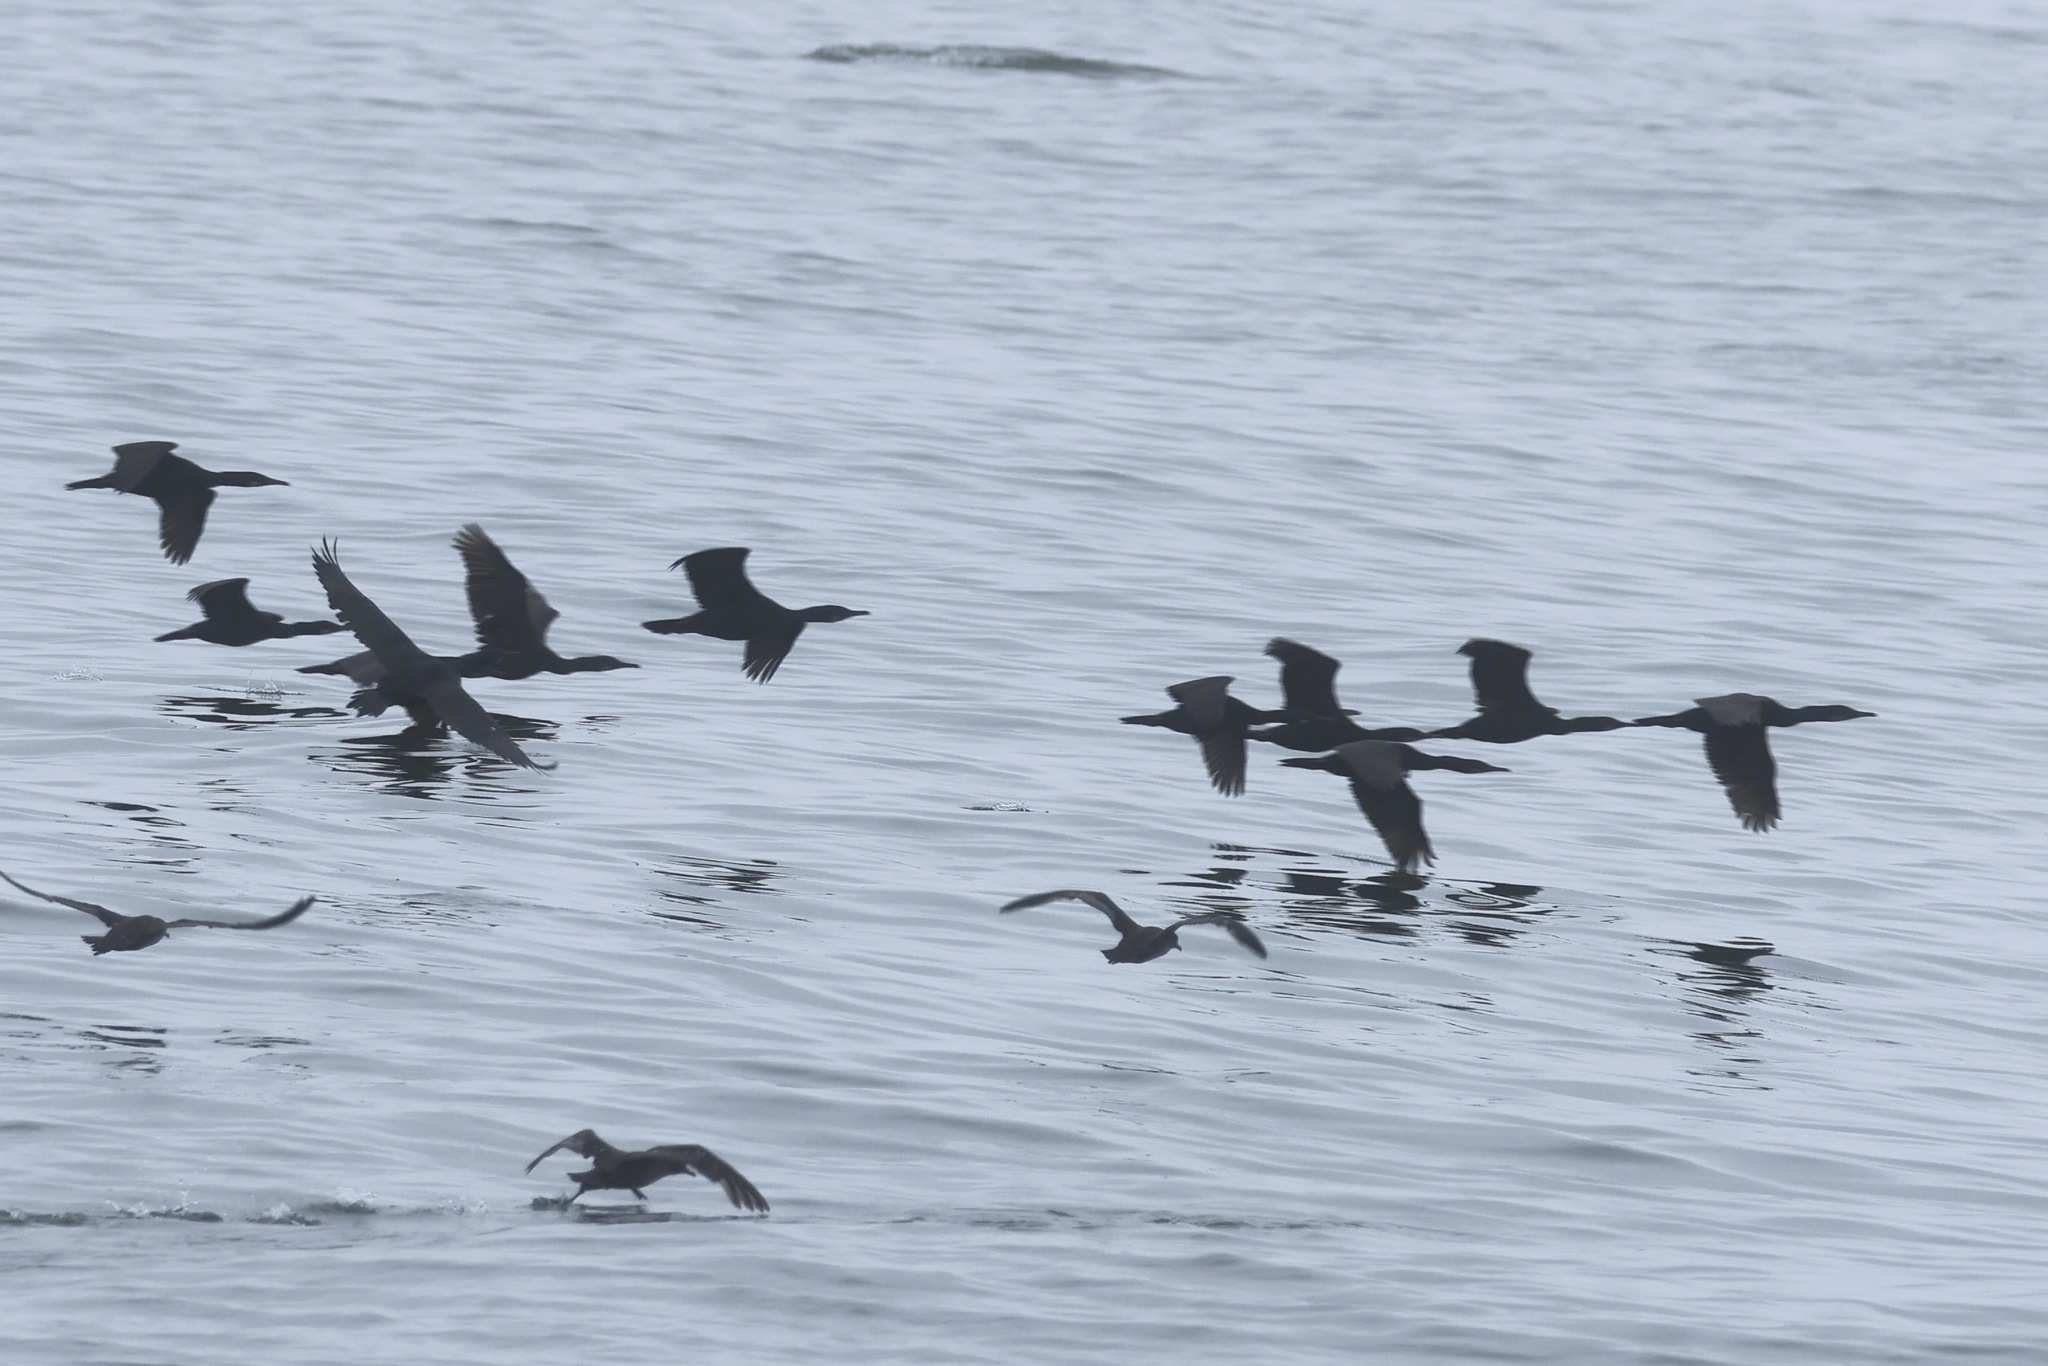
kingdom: Animalia
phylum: Chordata
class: Aves
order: Suliformes
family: Phalacrocoracidae
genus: Urile
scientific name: Urile penicillatus
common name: Brandt's cormorant
